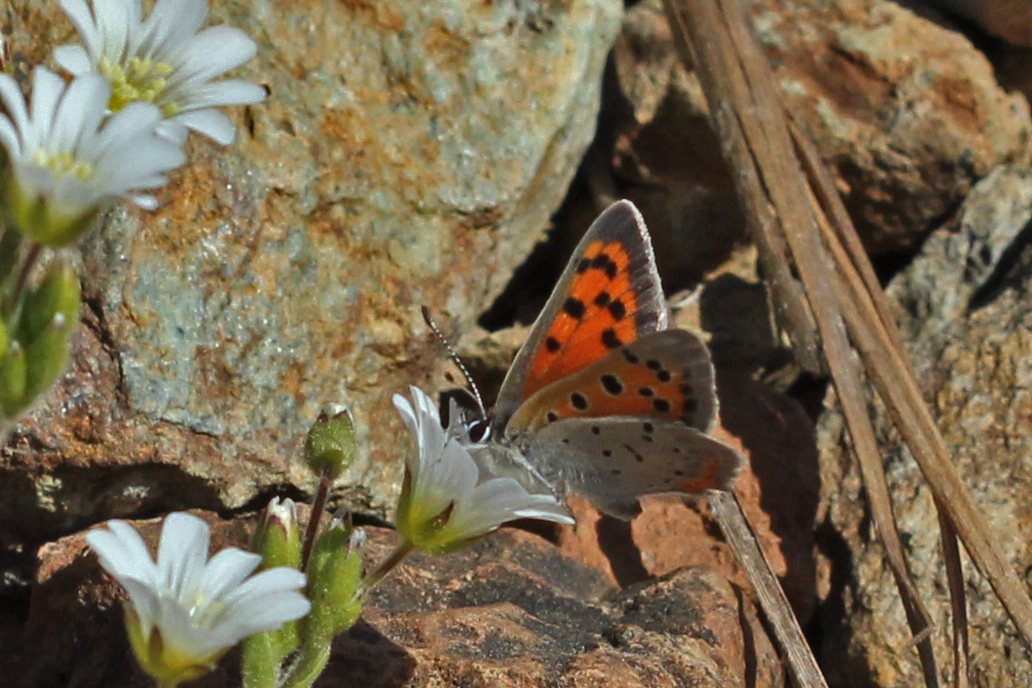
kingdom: Animalia
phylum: Arthropoda
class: Insecta
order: Lepidoptera
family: Lycaenidae
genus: Lycaena
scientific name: Lycaena hypophlaeas
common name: American copper
